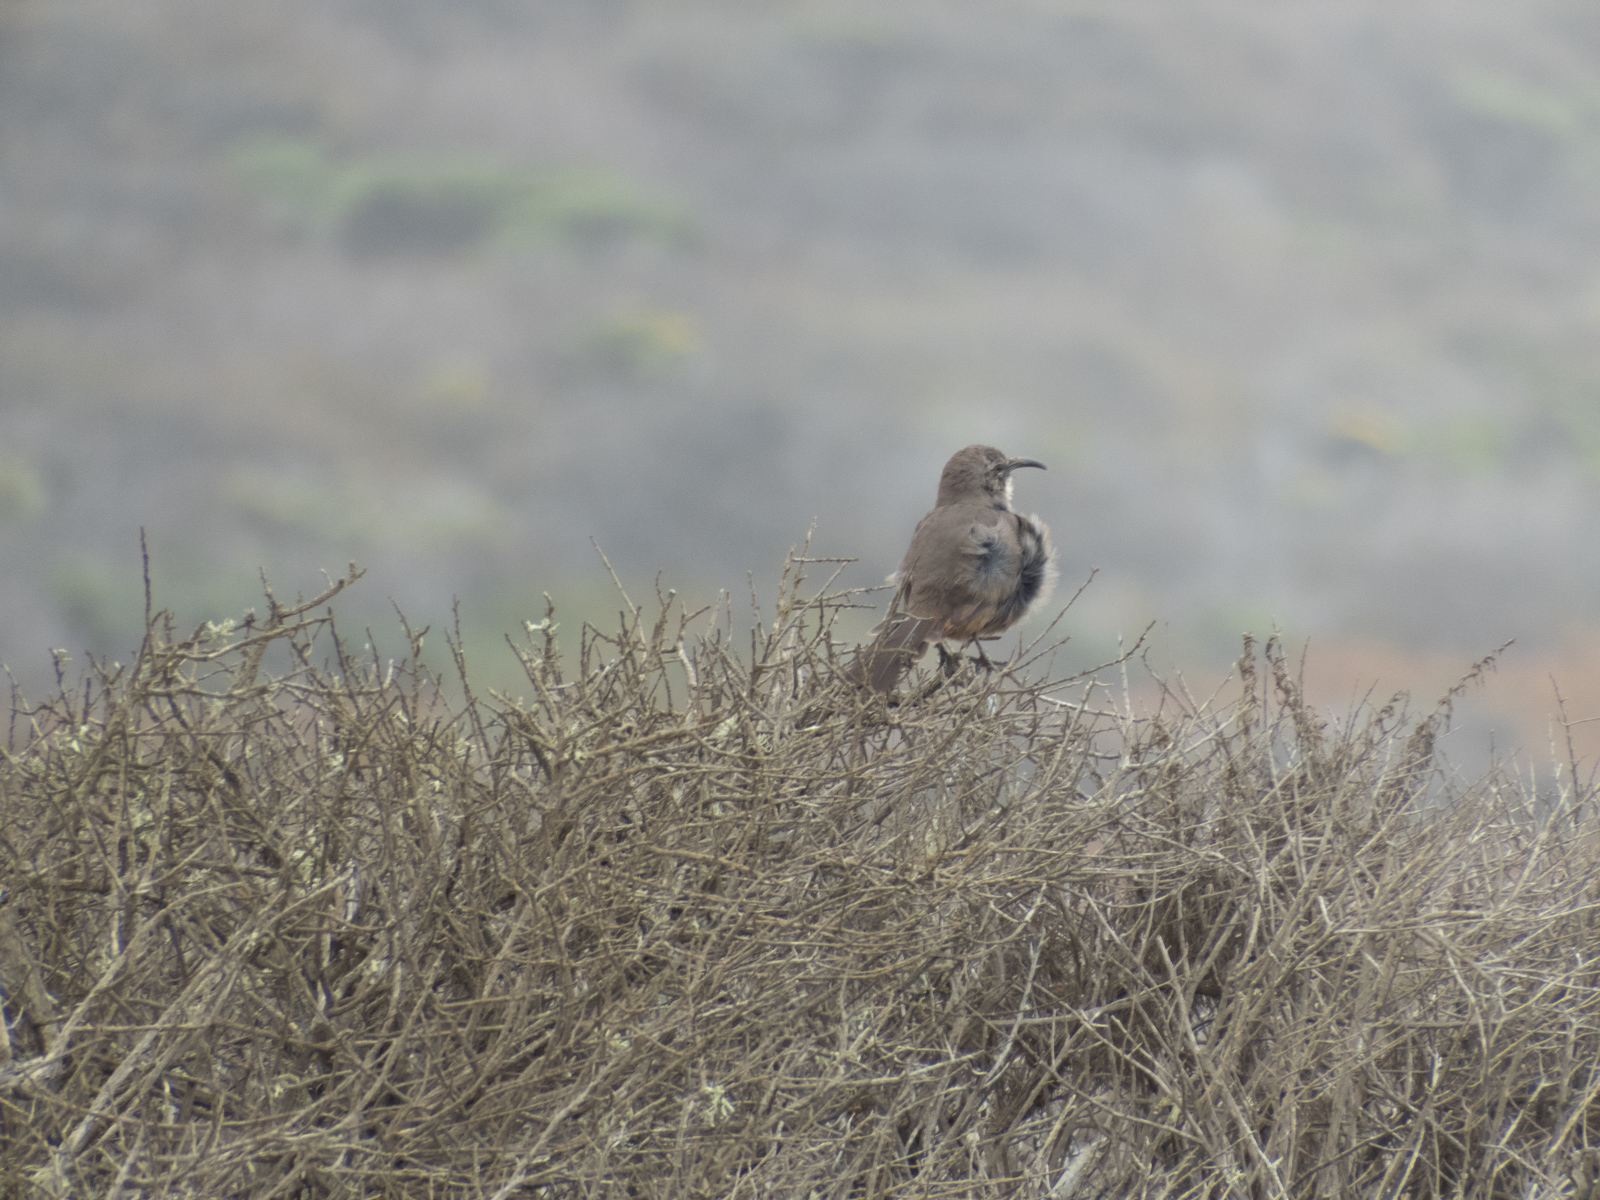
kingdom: Animalia
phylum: Chordata
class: Aves
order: Passeriformes
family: Mimidae
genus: Toxostoma
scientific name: Toxostoma redivivum
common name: California thrasher
